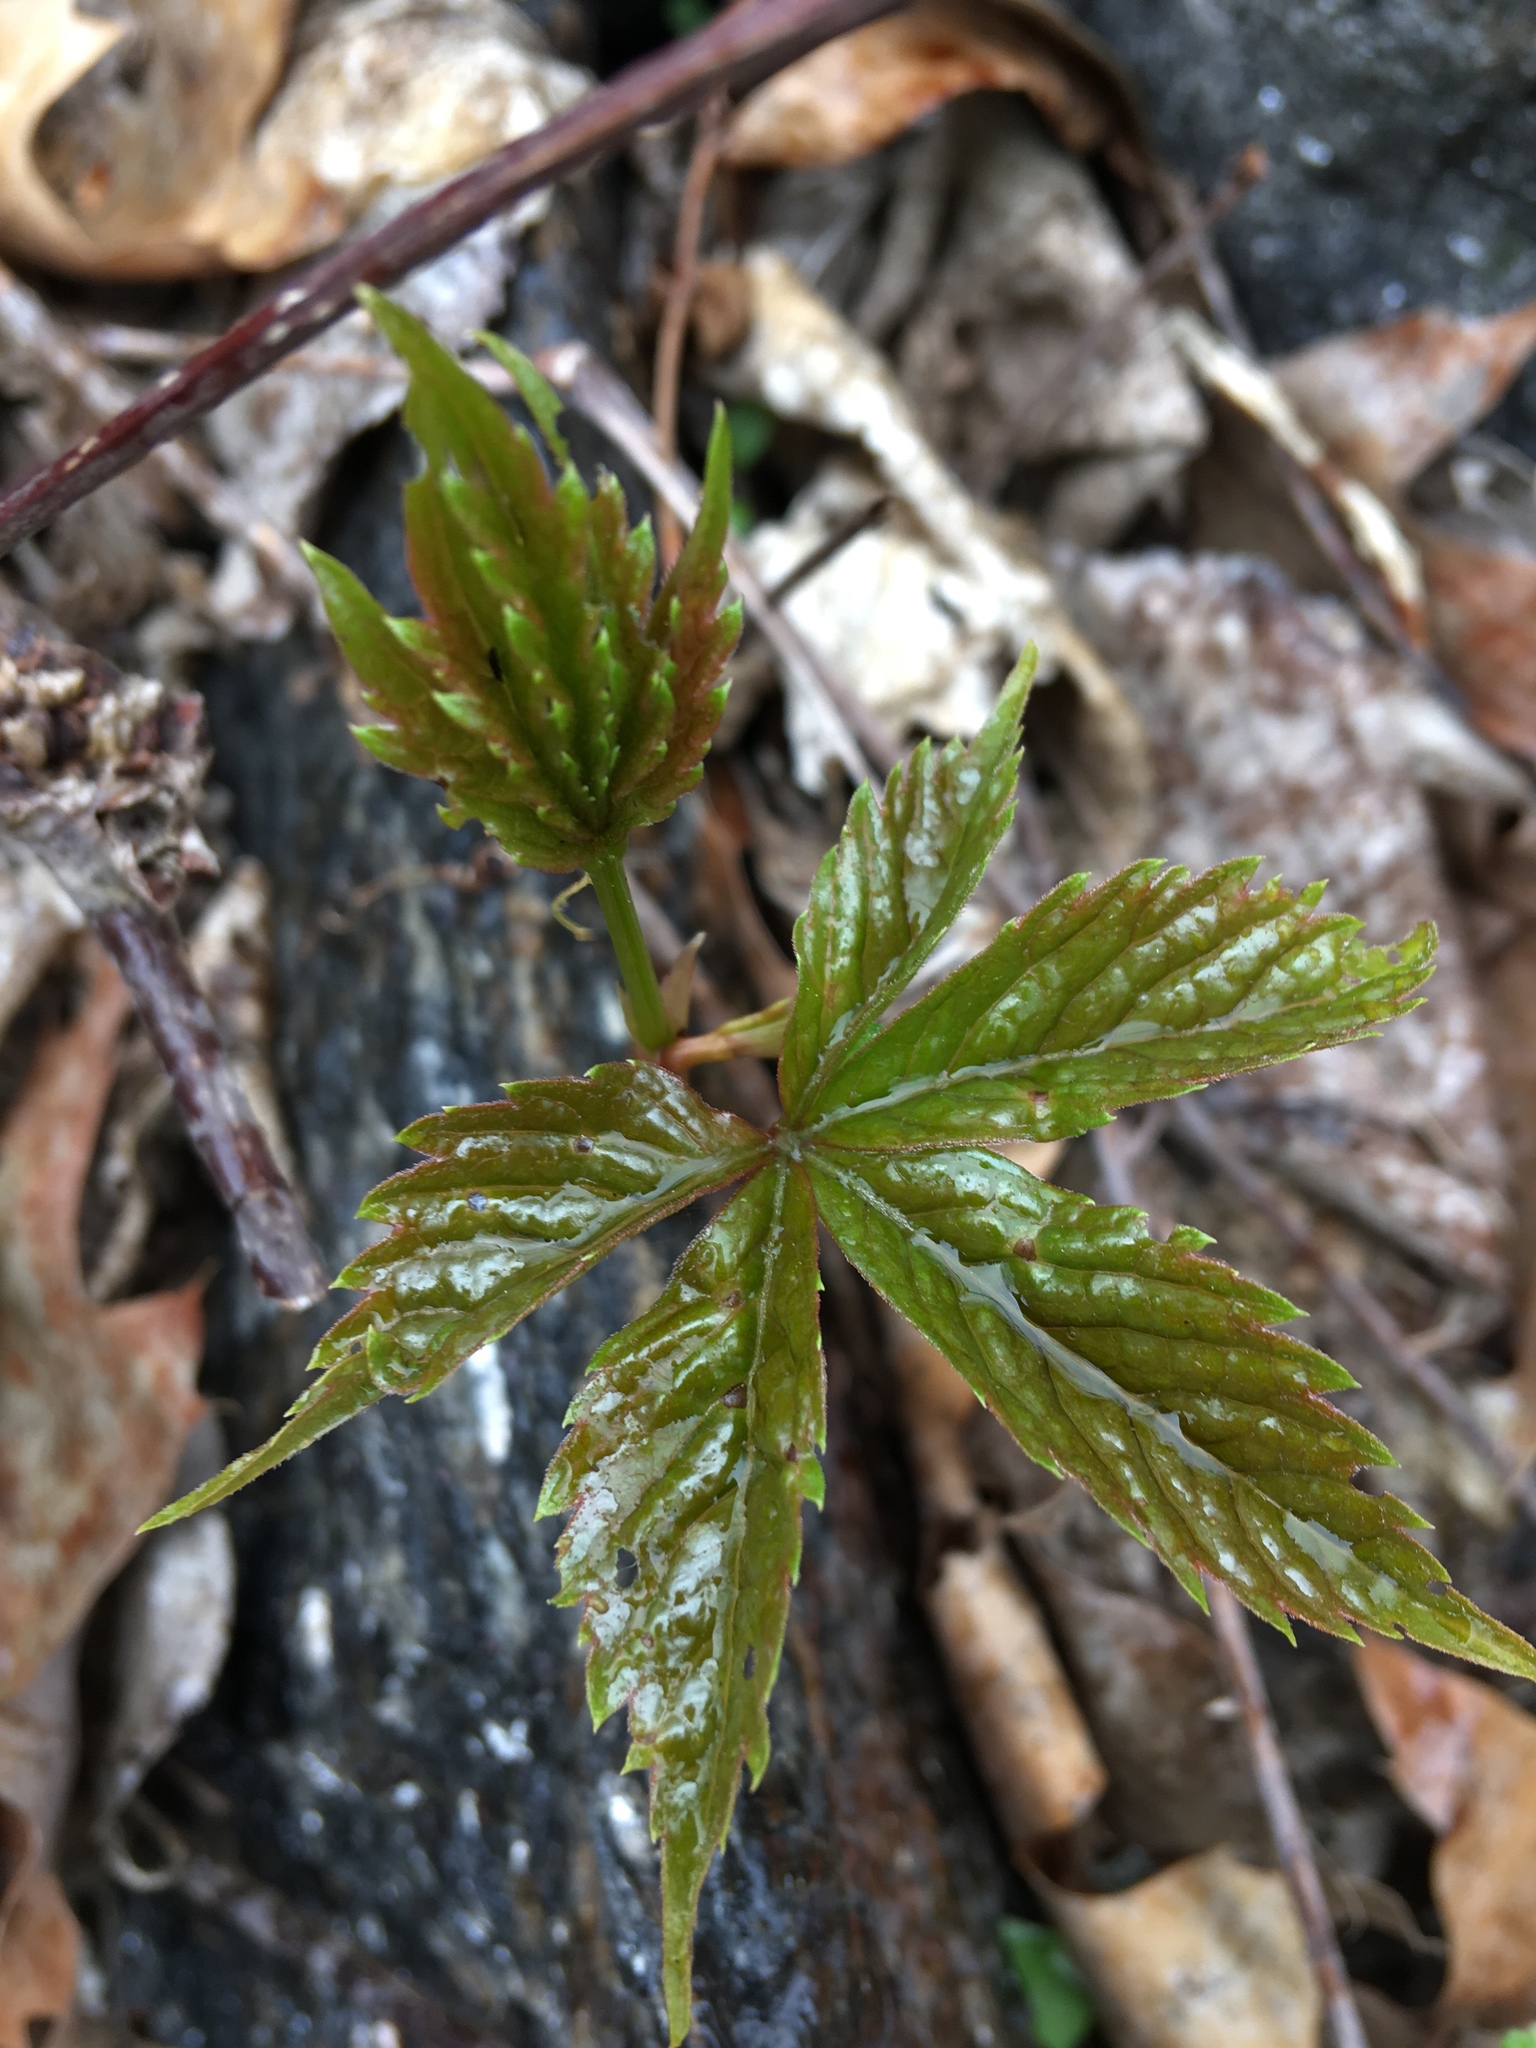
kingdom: Plantae
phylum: Tracheophyta
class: Magnoliopsida
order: Vitales
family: Vitaceae
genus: Parthenocissus
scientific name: Parthenocissus quinquefolia
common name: Virginia-creeper
